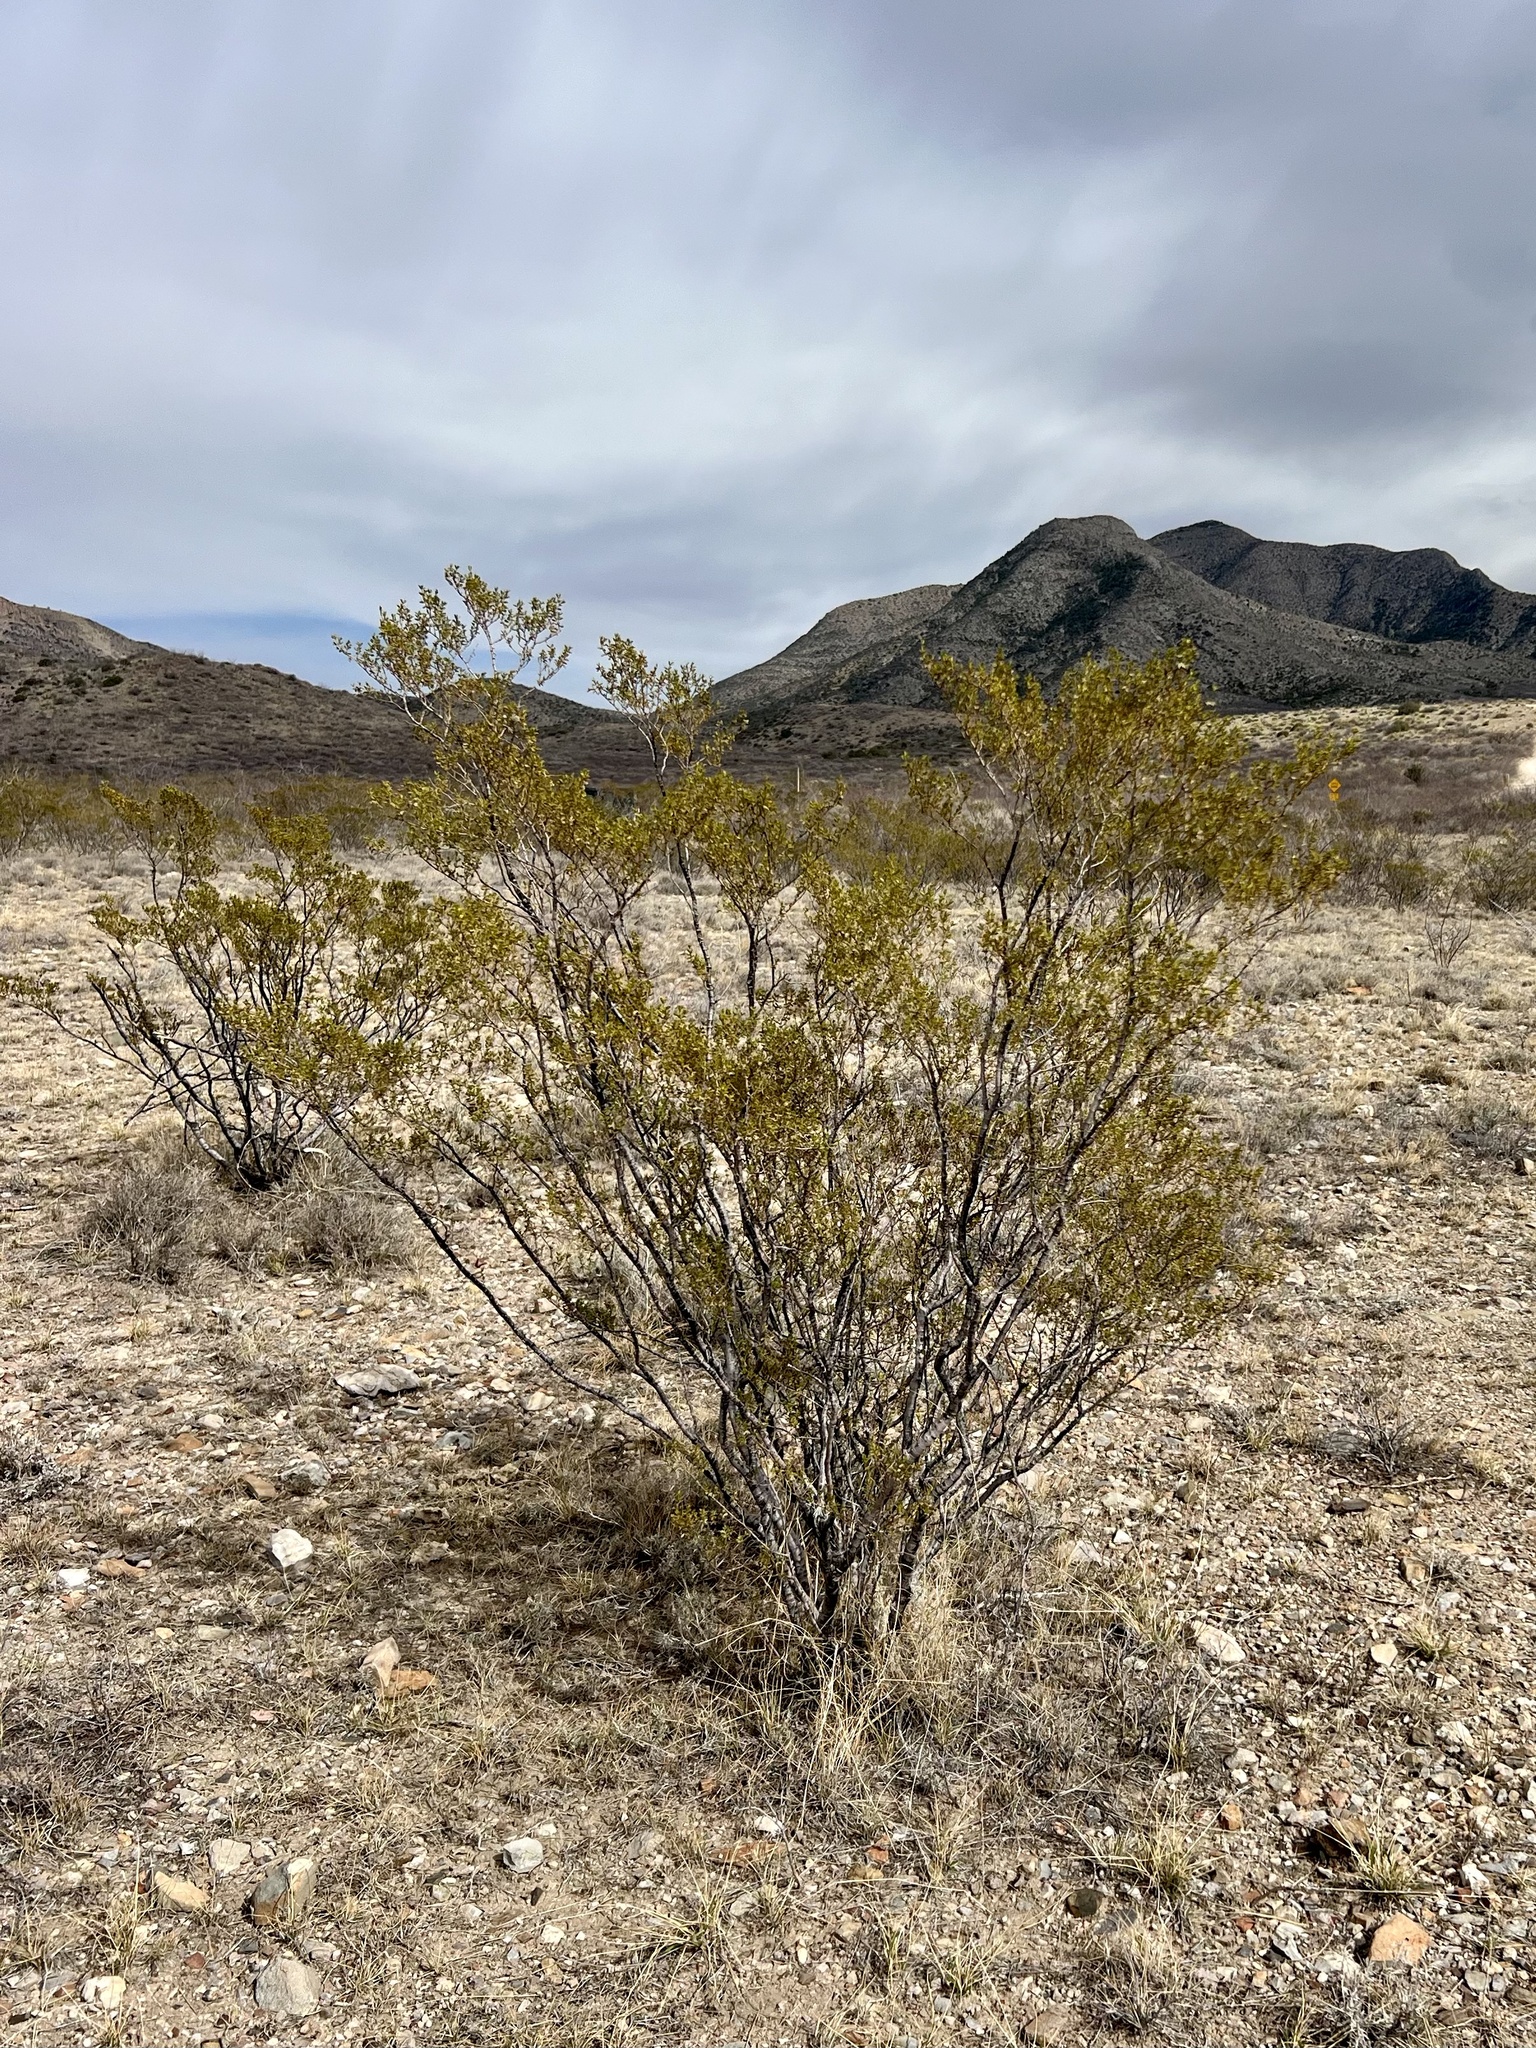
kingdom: Plantae
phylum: Tracheophyta
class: Magnoliopsida
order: Zygophyllales
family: Zygophyllaceae
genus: Larrea
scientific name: Larrea tridentata
